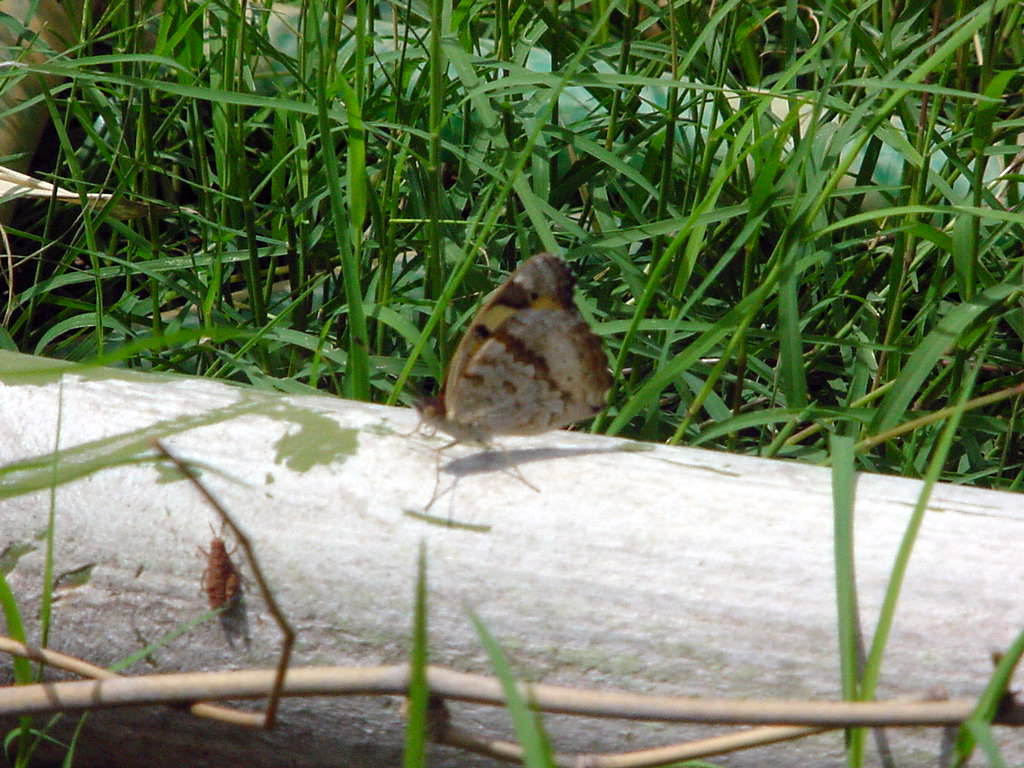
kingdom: Animalia
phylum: Arthropoda
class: Insecta
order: Lepidoptera
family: Nymphalidae
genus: Junonia
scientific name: Junonia hierta
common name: Yellow pansy
